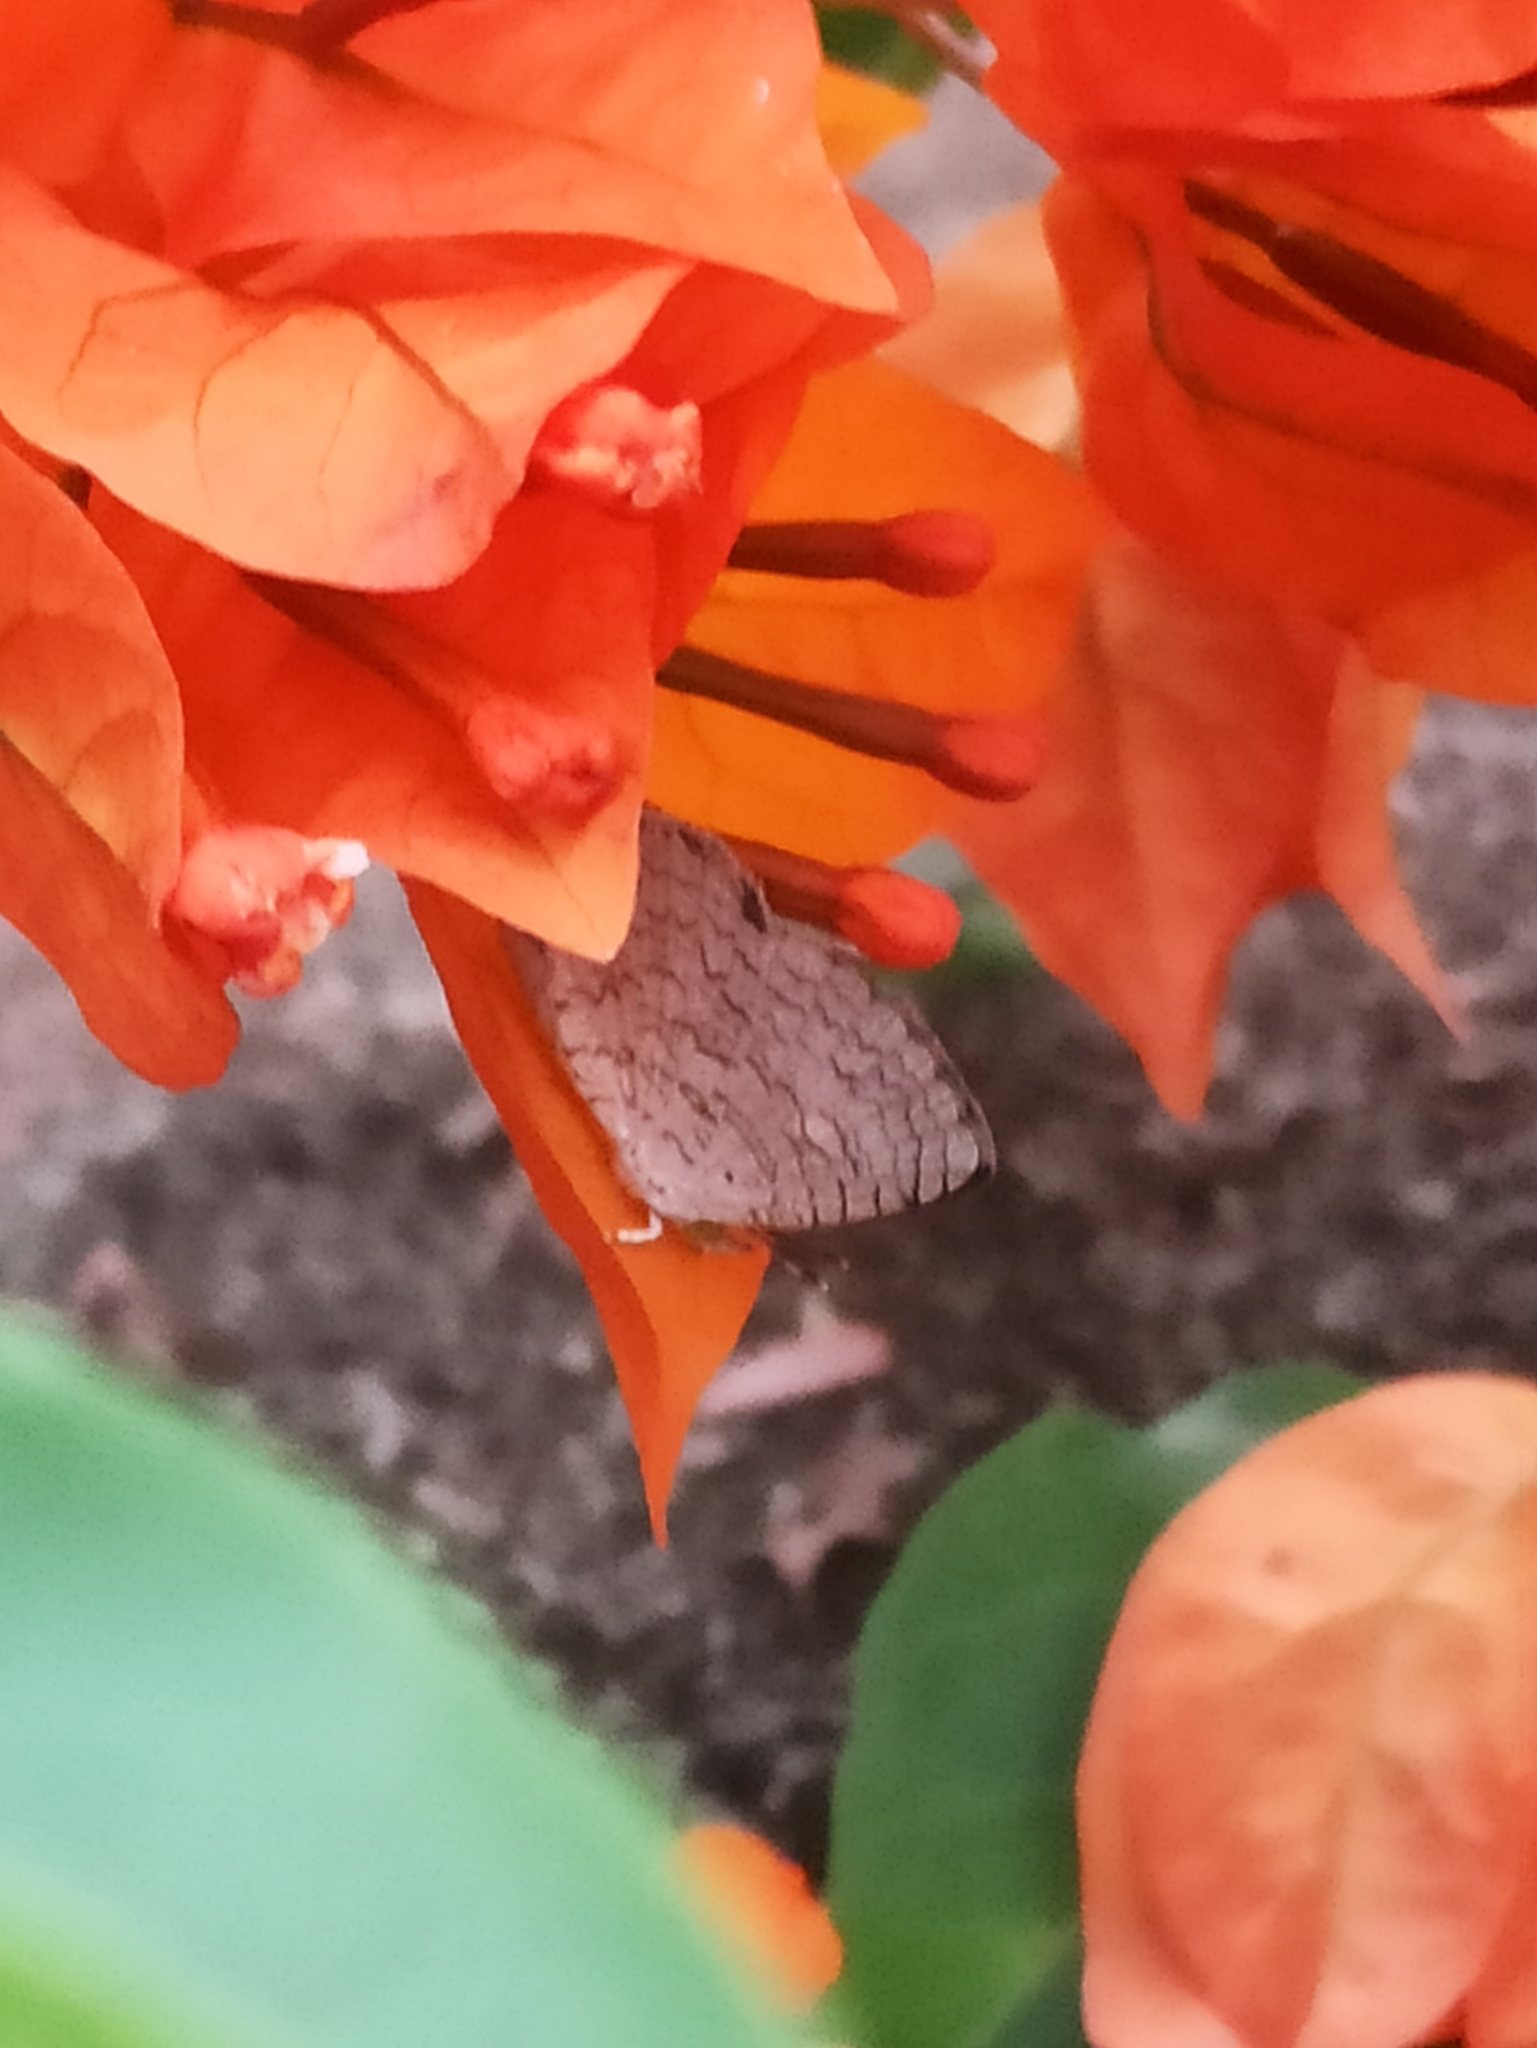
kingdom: Animalia
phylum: Arthropoda
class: Insecta
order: Lepidoptera
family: Lycaenidae
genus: Spalgis
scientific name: Spalgis epius
